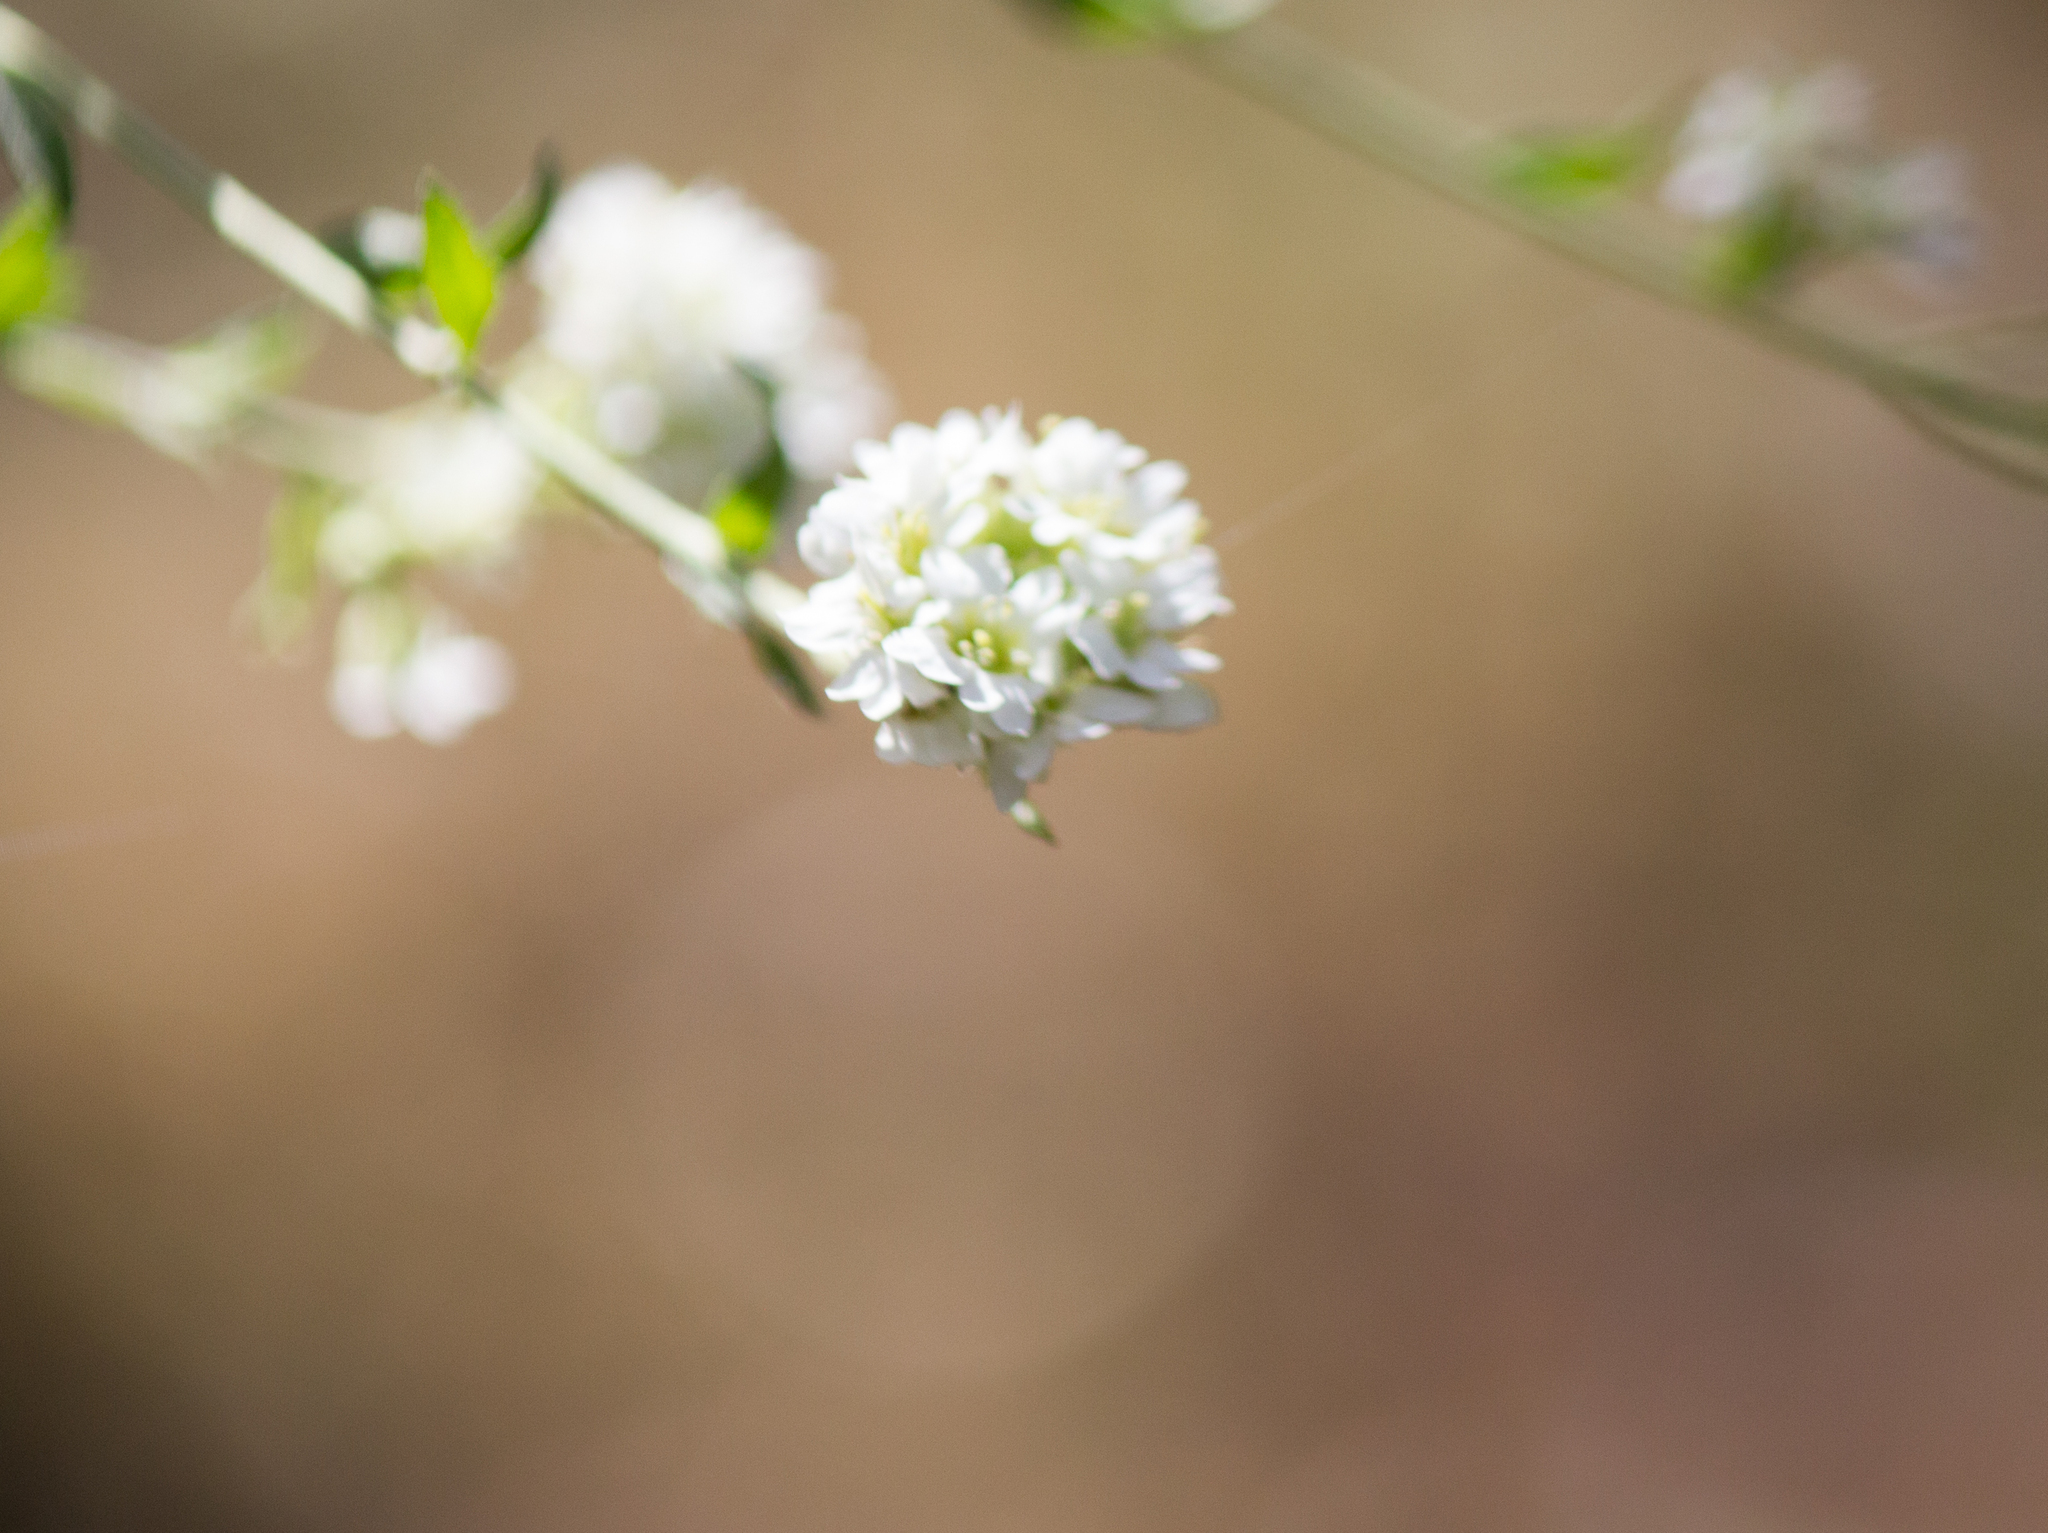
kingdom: Plantae
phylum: Tracheophyta
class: Magnoliopsida
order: Brassicales
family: Brassicaceae
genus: Berteroa
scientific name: Berteroa incana
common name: Hoary alison
